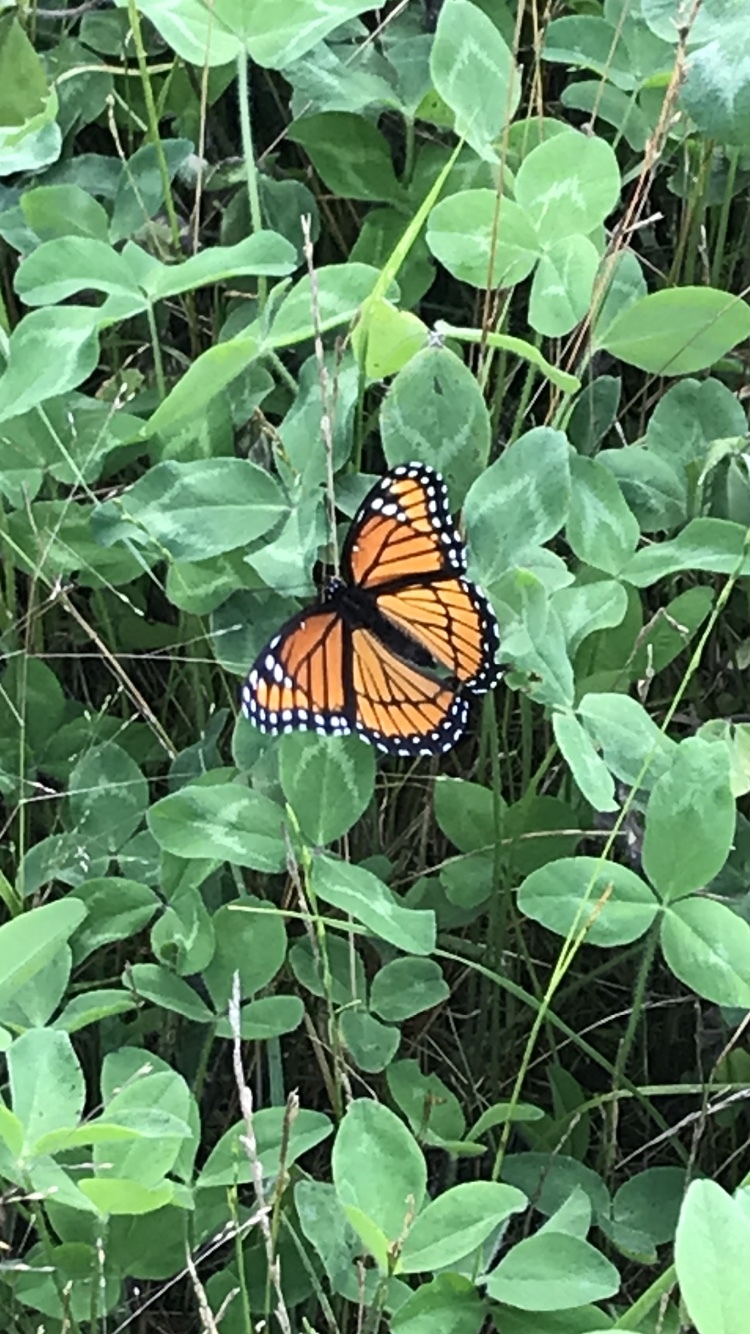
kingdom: Animalia
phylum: Arthropoda
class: Insecta
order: Lepidoptera
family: Nymphalidae
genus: Limenitis
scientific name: Limenitis archippus
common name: Viceroy
